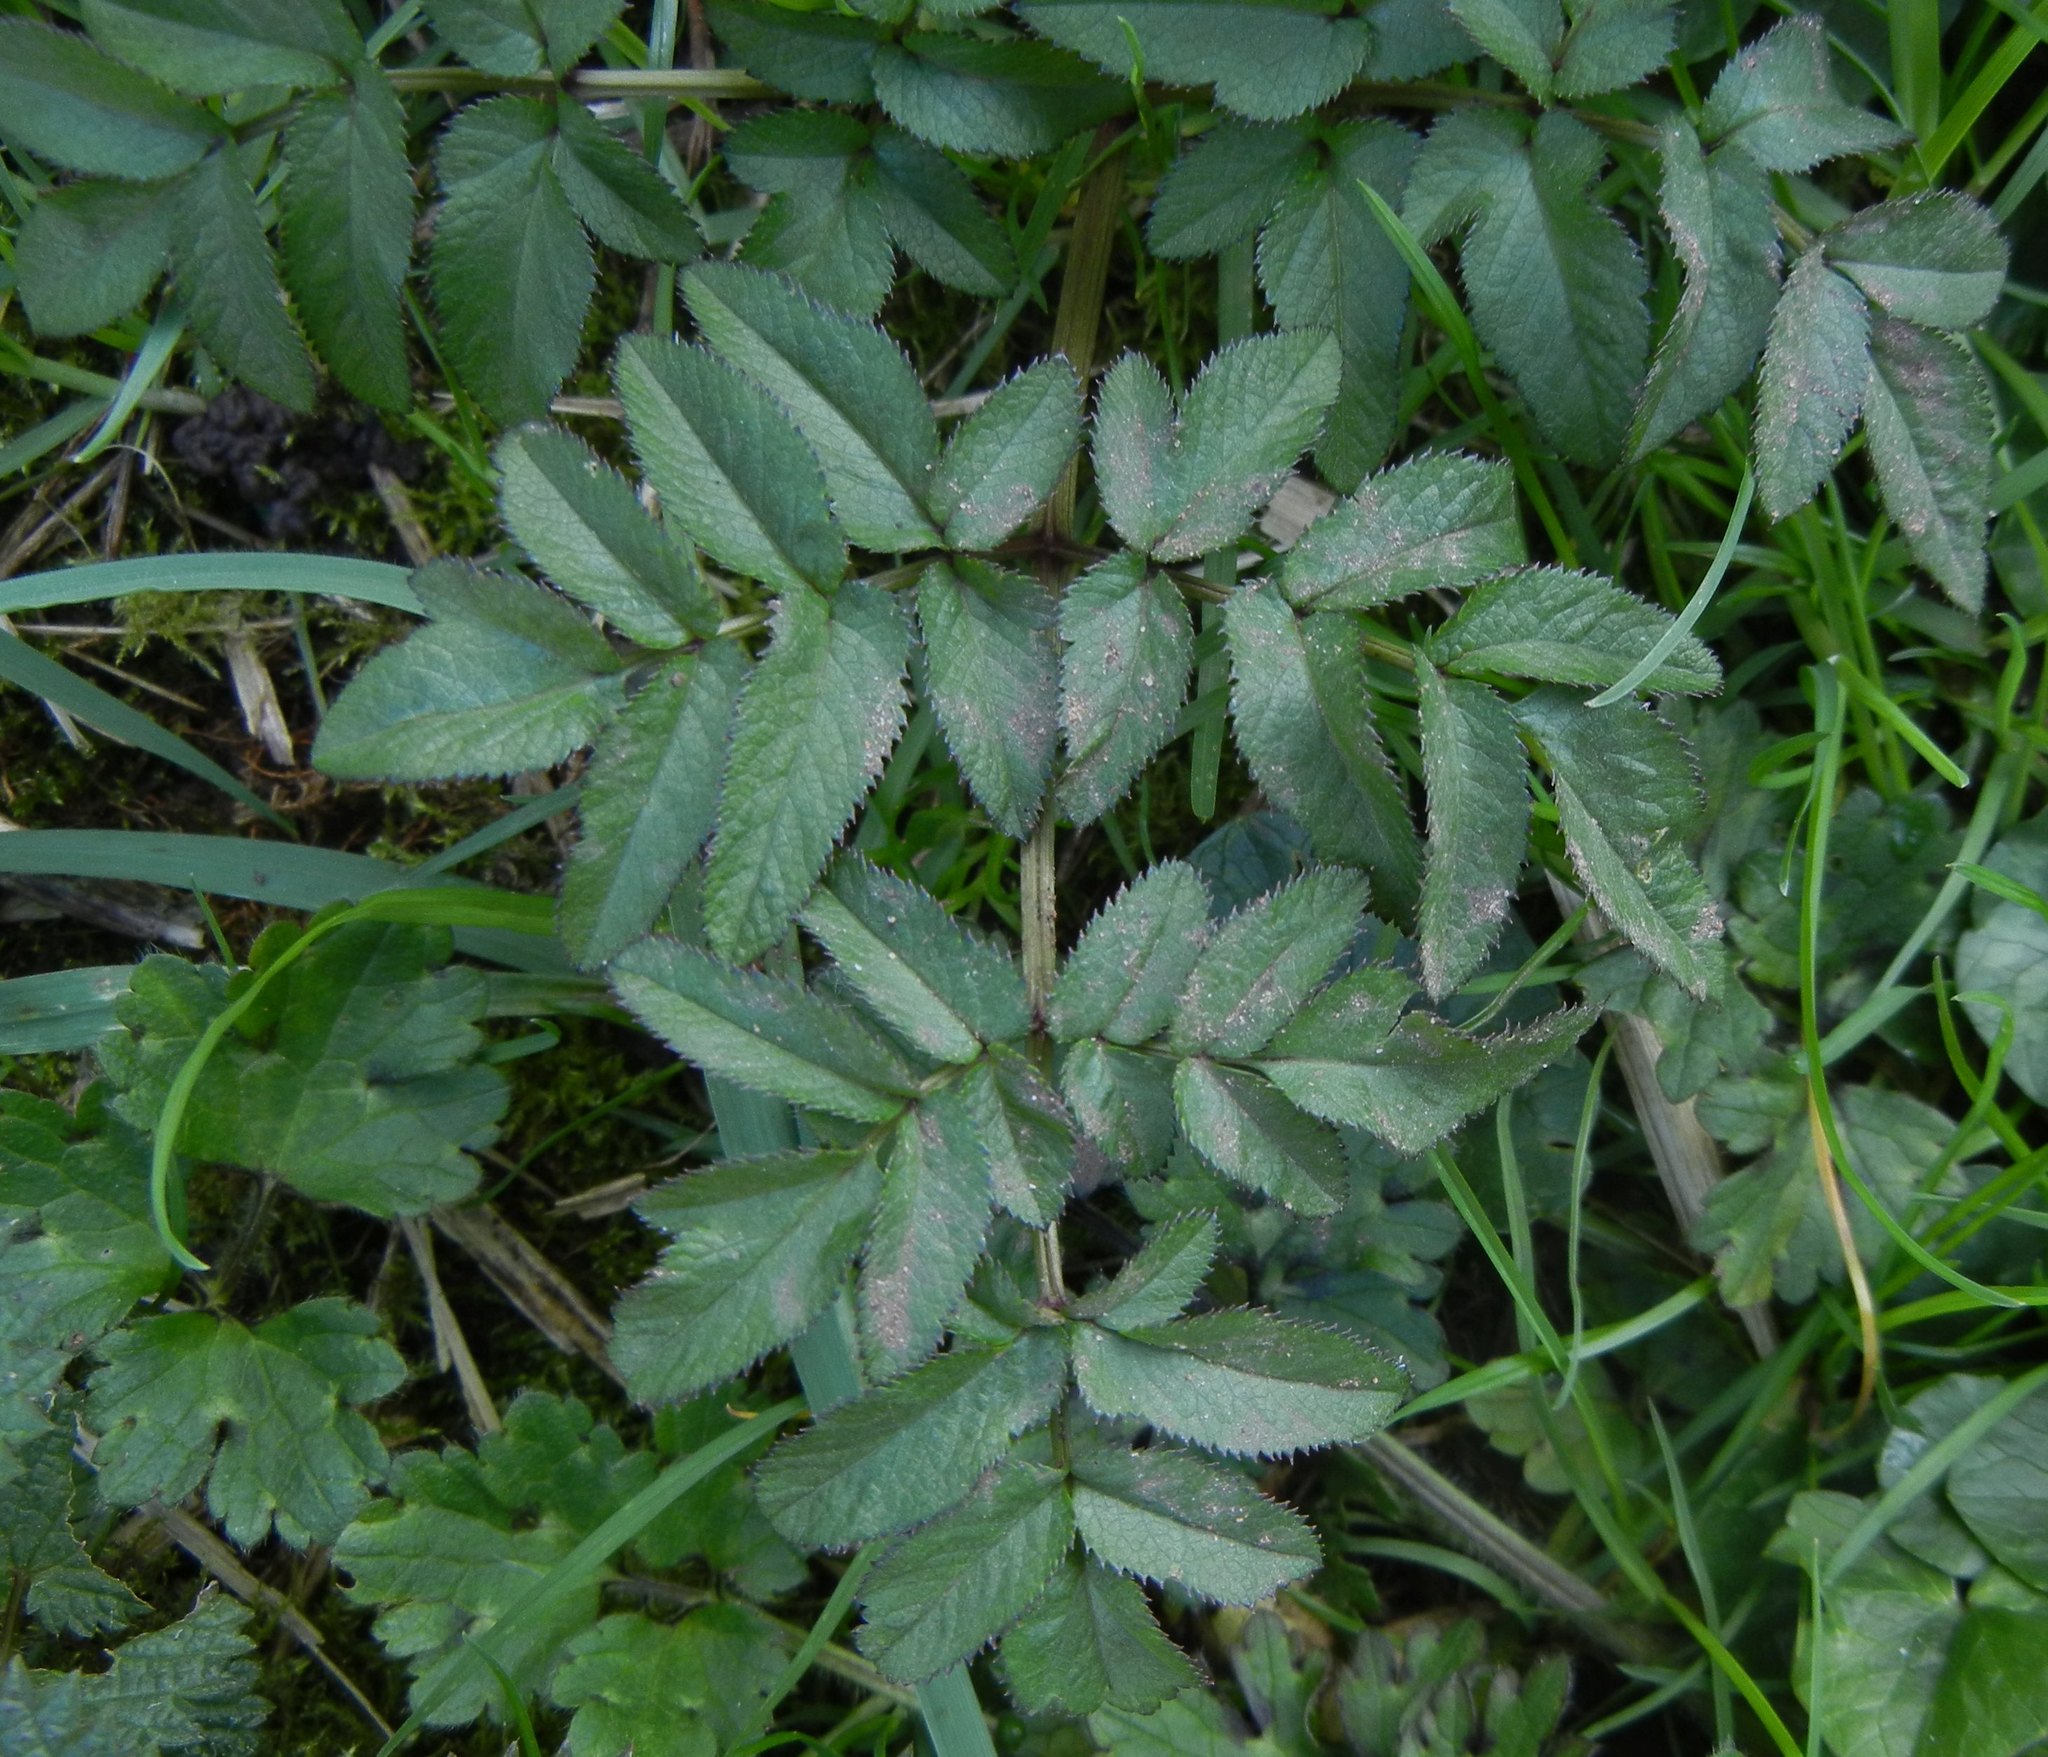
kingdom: Plantae
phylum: Tracheophyta
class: Magnoliopsida
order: Apiales
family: Apiaceae
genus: Angelica
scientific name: Angelica sylvestris
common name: Wild angelica
